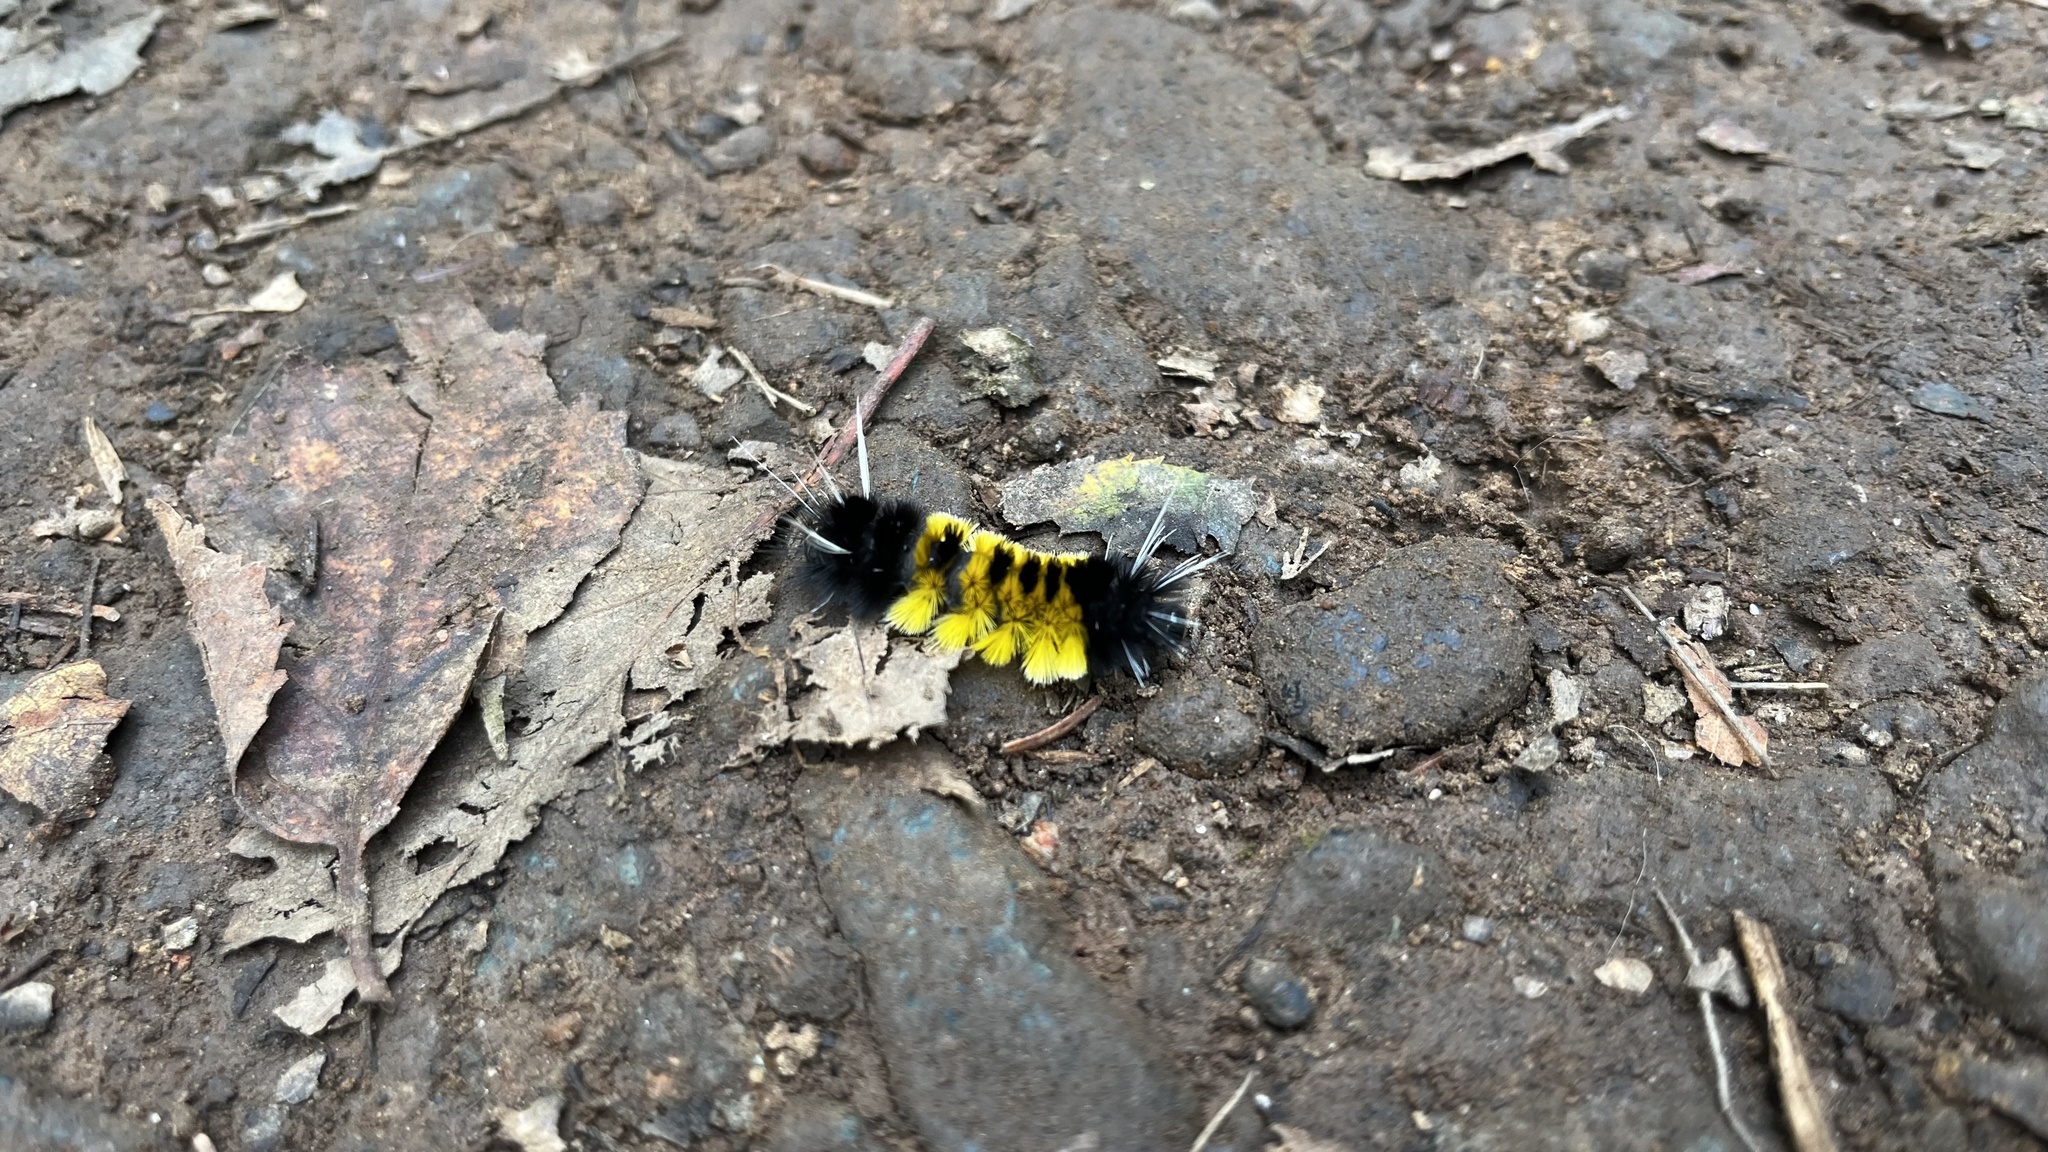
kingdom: Animalia
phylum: Arthropoda
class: Insecta
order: Lepidoptera
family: Erebidae
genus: Lophocampa
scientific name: Lophocampa maculata
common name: Spotted tussock moth
